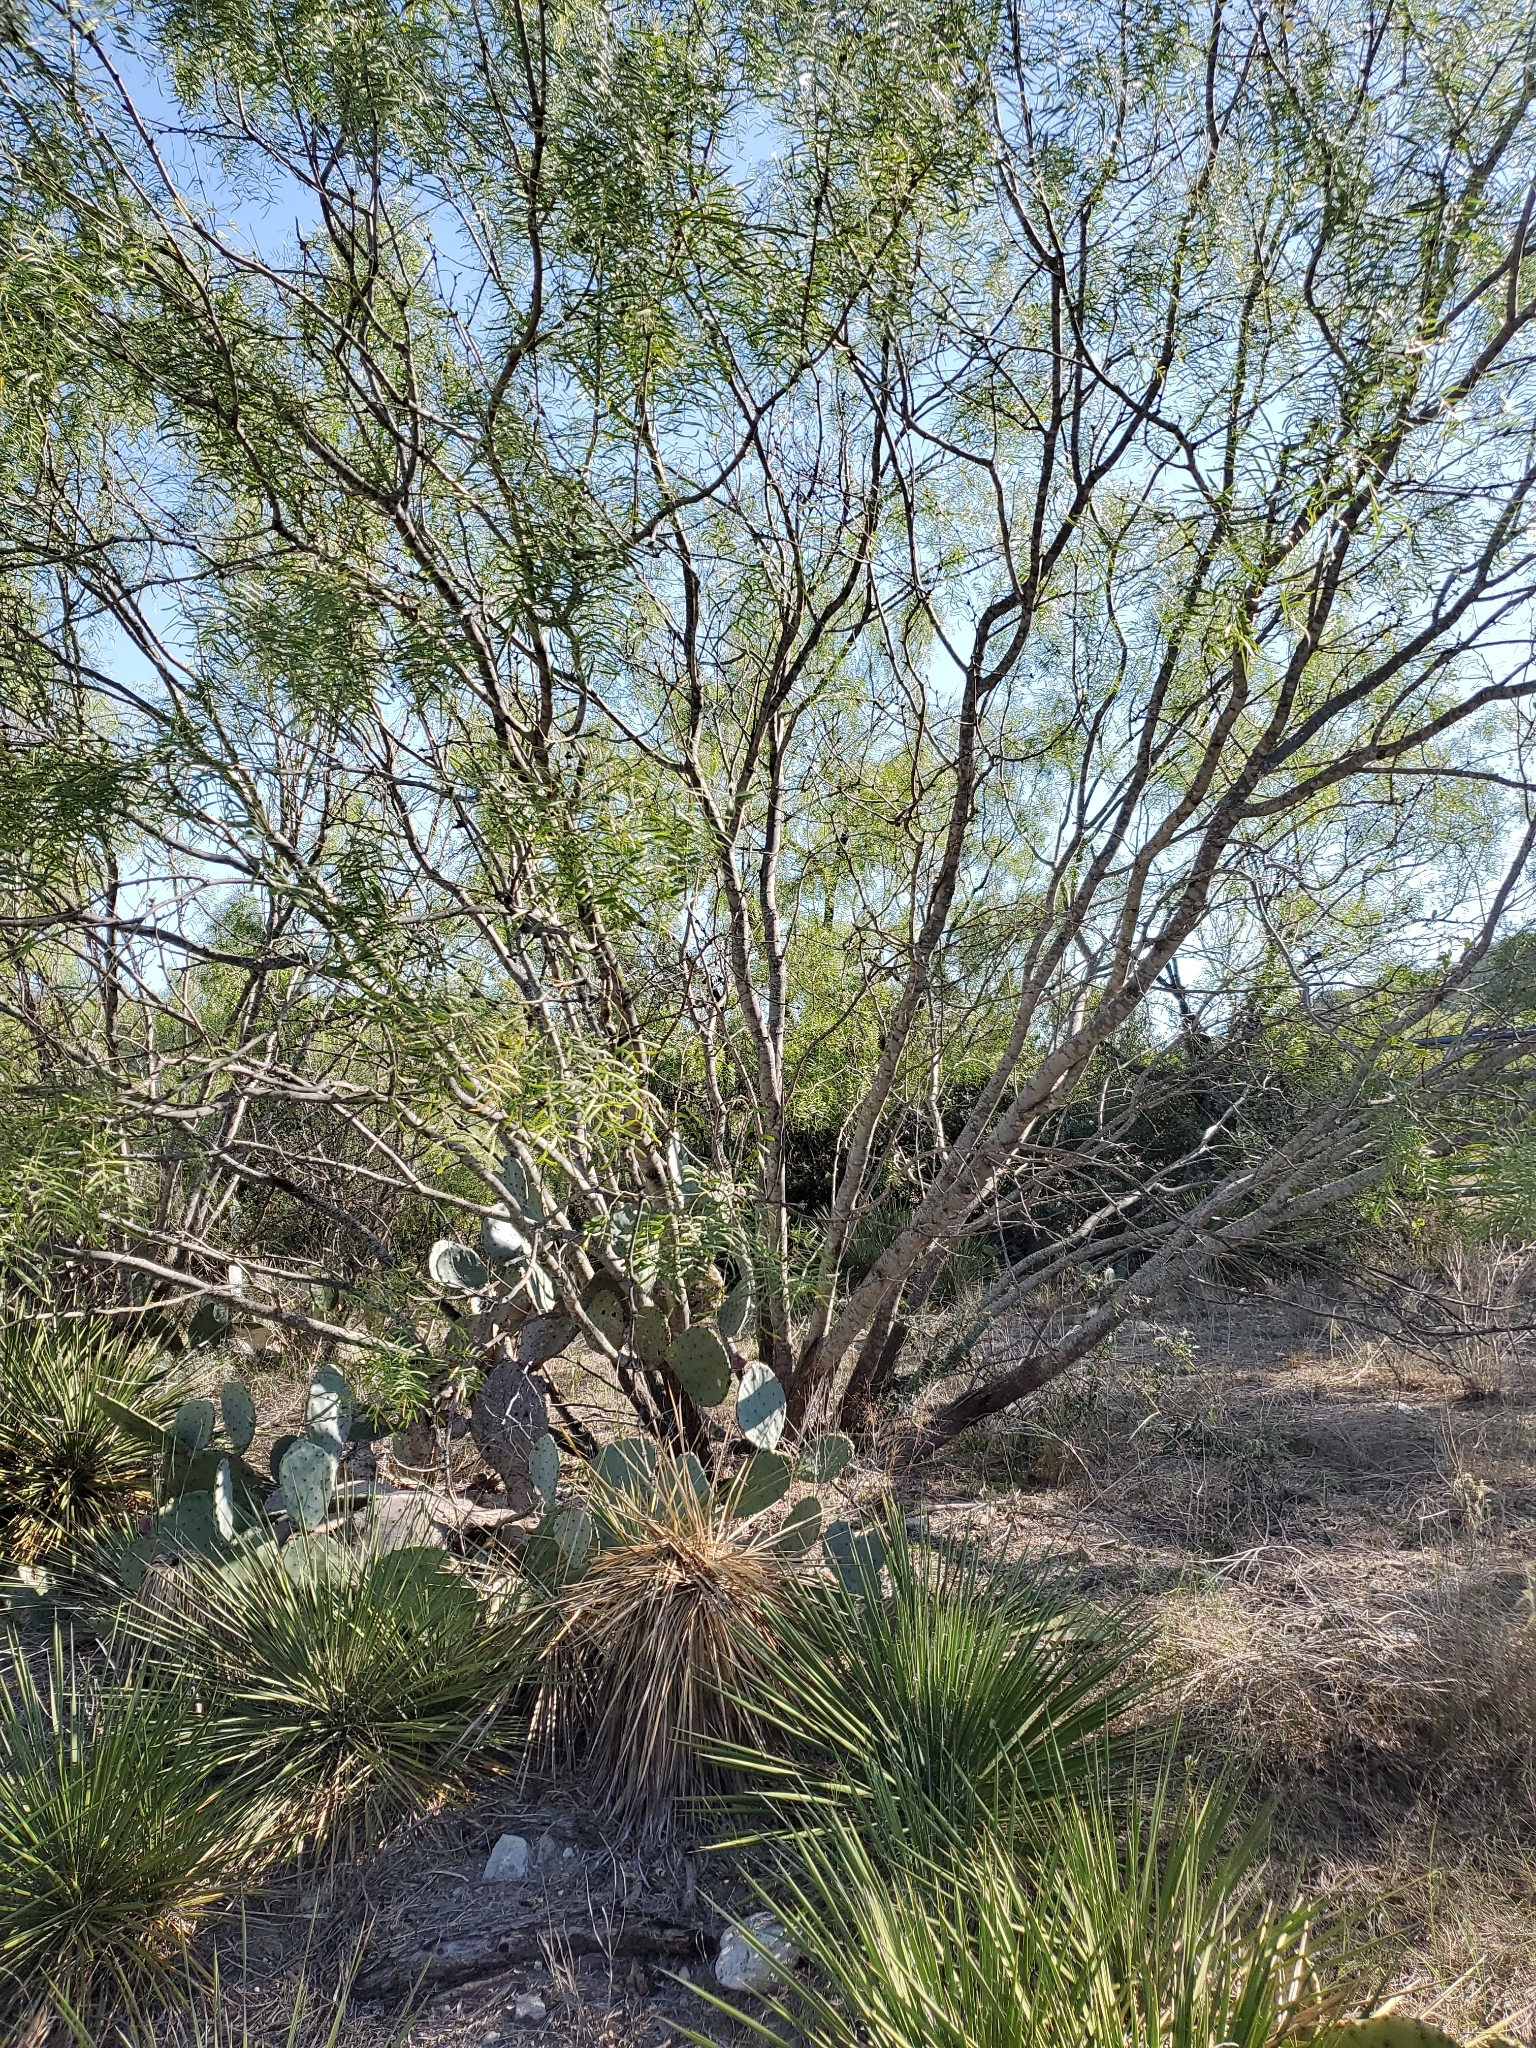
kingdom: Plantae
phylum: Tracheophyta
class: Magnoliopsida
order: Fabales
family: Fabaceae
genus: Prosopis
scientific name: Prosopis glandulosa
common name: Honey mesquite
